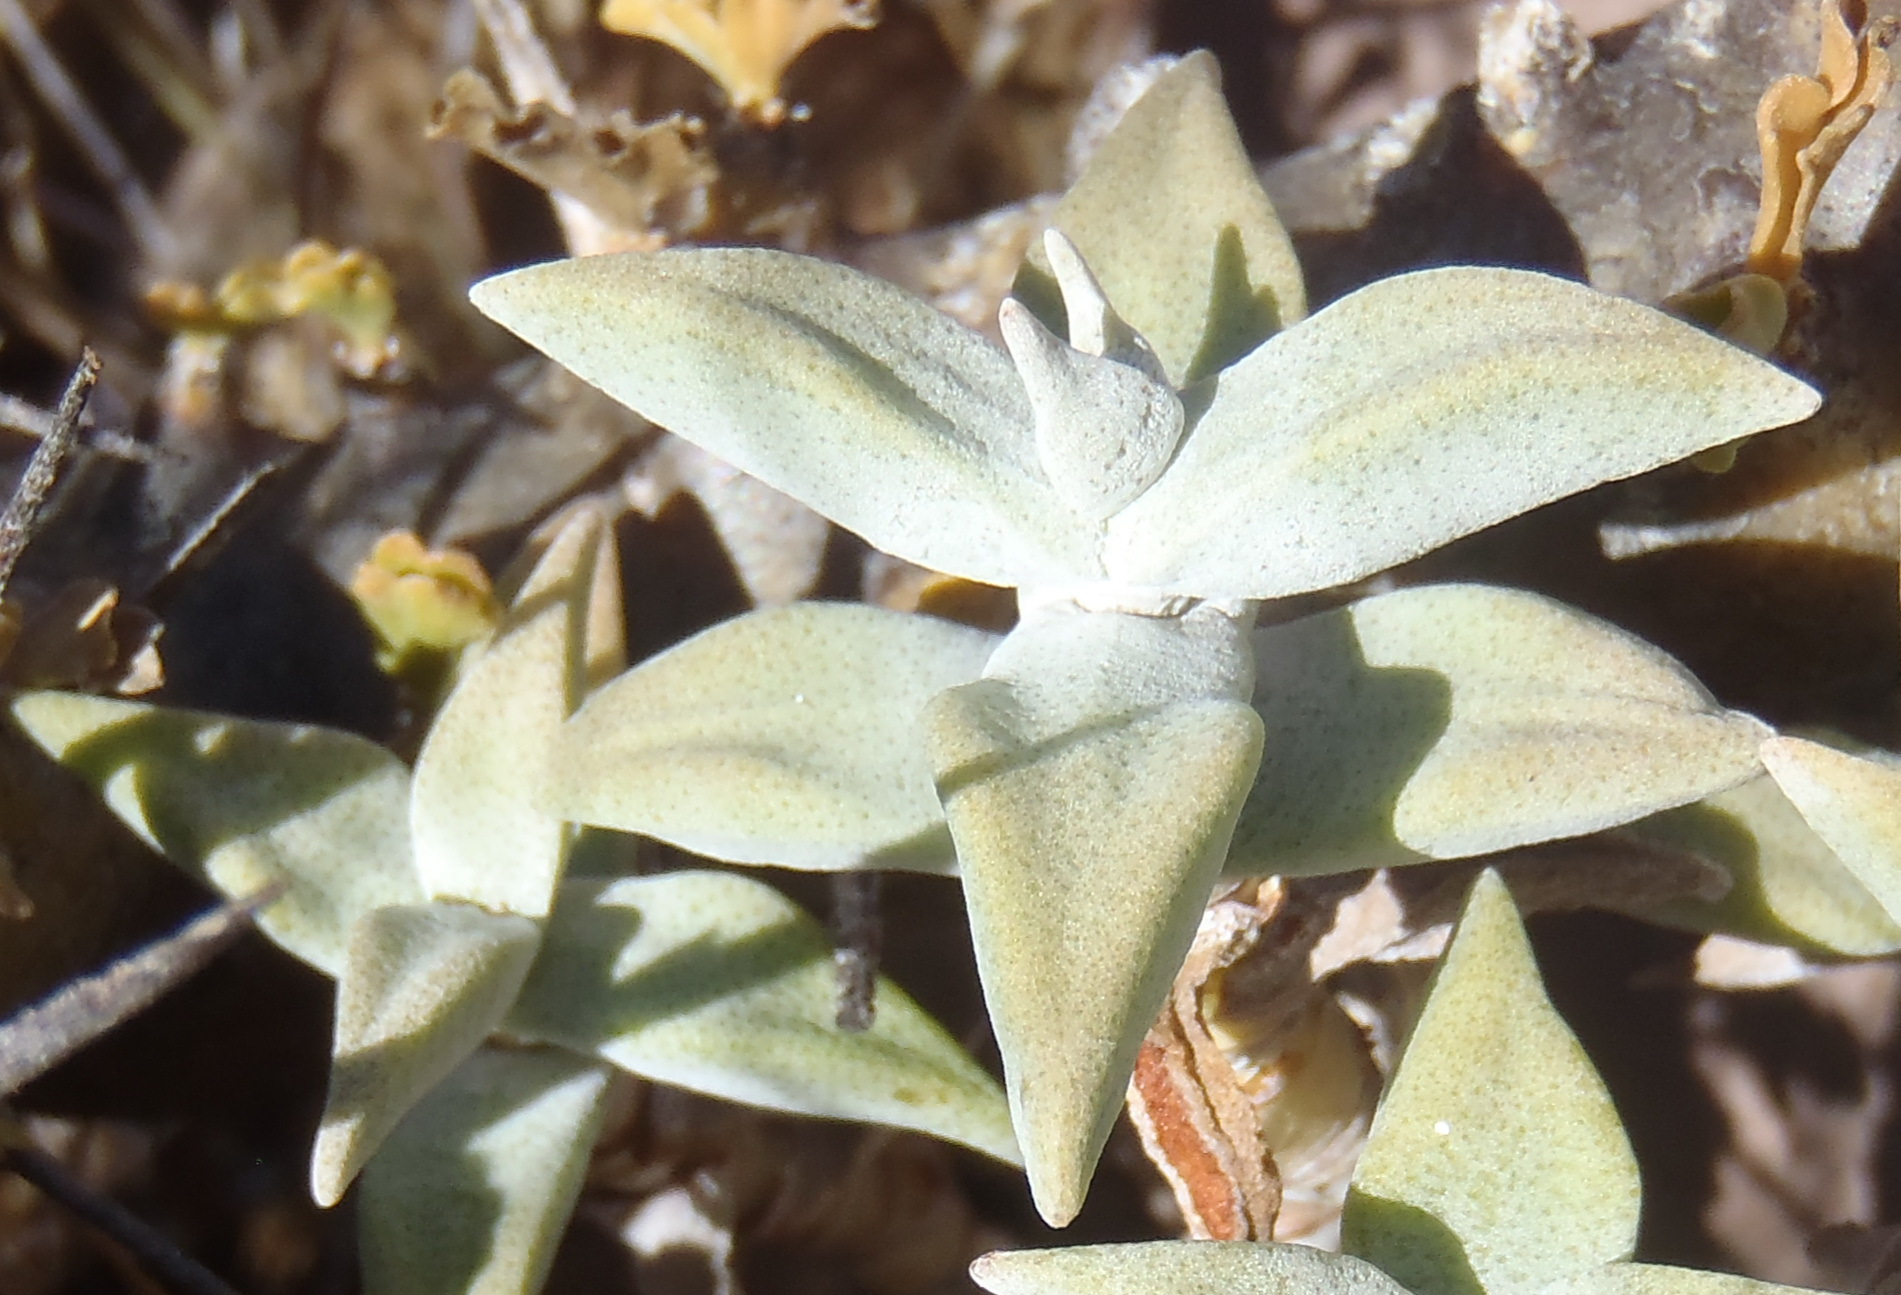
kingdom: Plantae
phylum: Tracheophyta
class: Magnoliopsida
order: Saxifragales
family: Crassulaceae
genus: Crassula
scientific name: Crassula deltoidea
